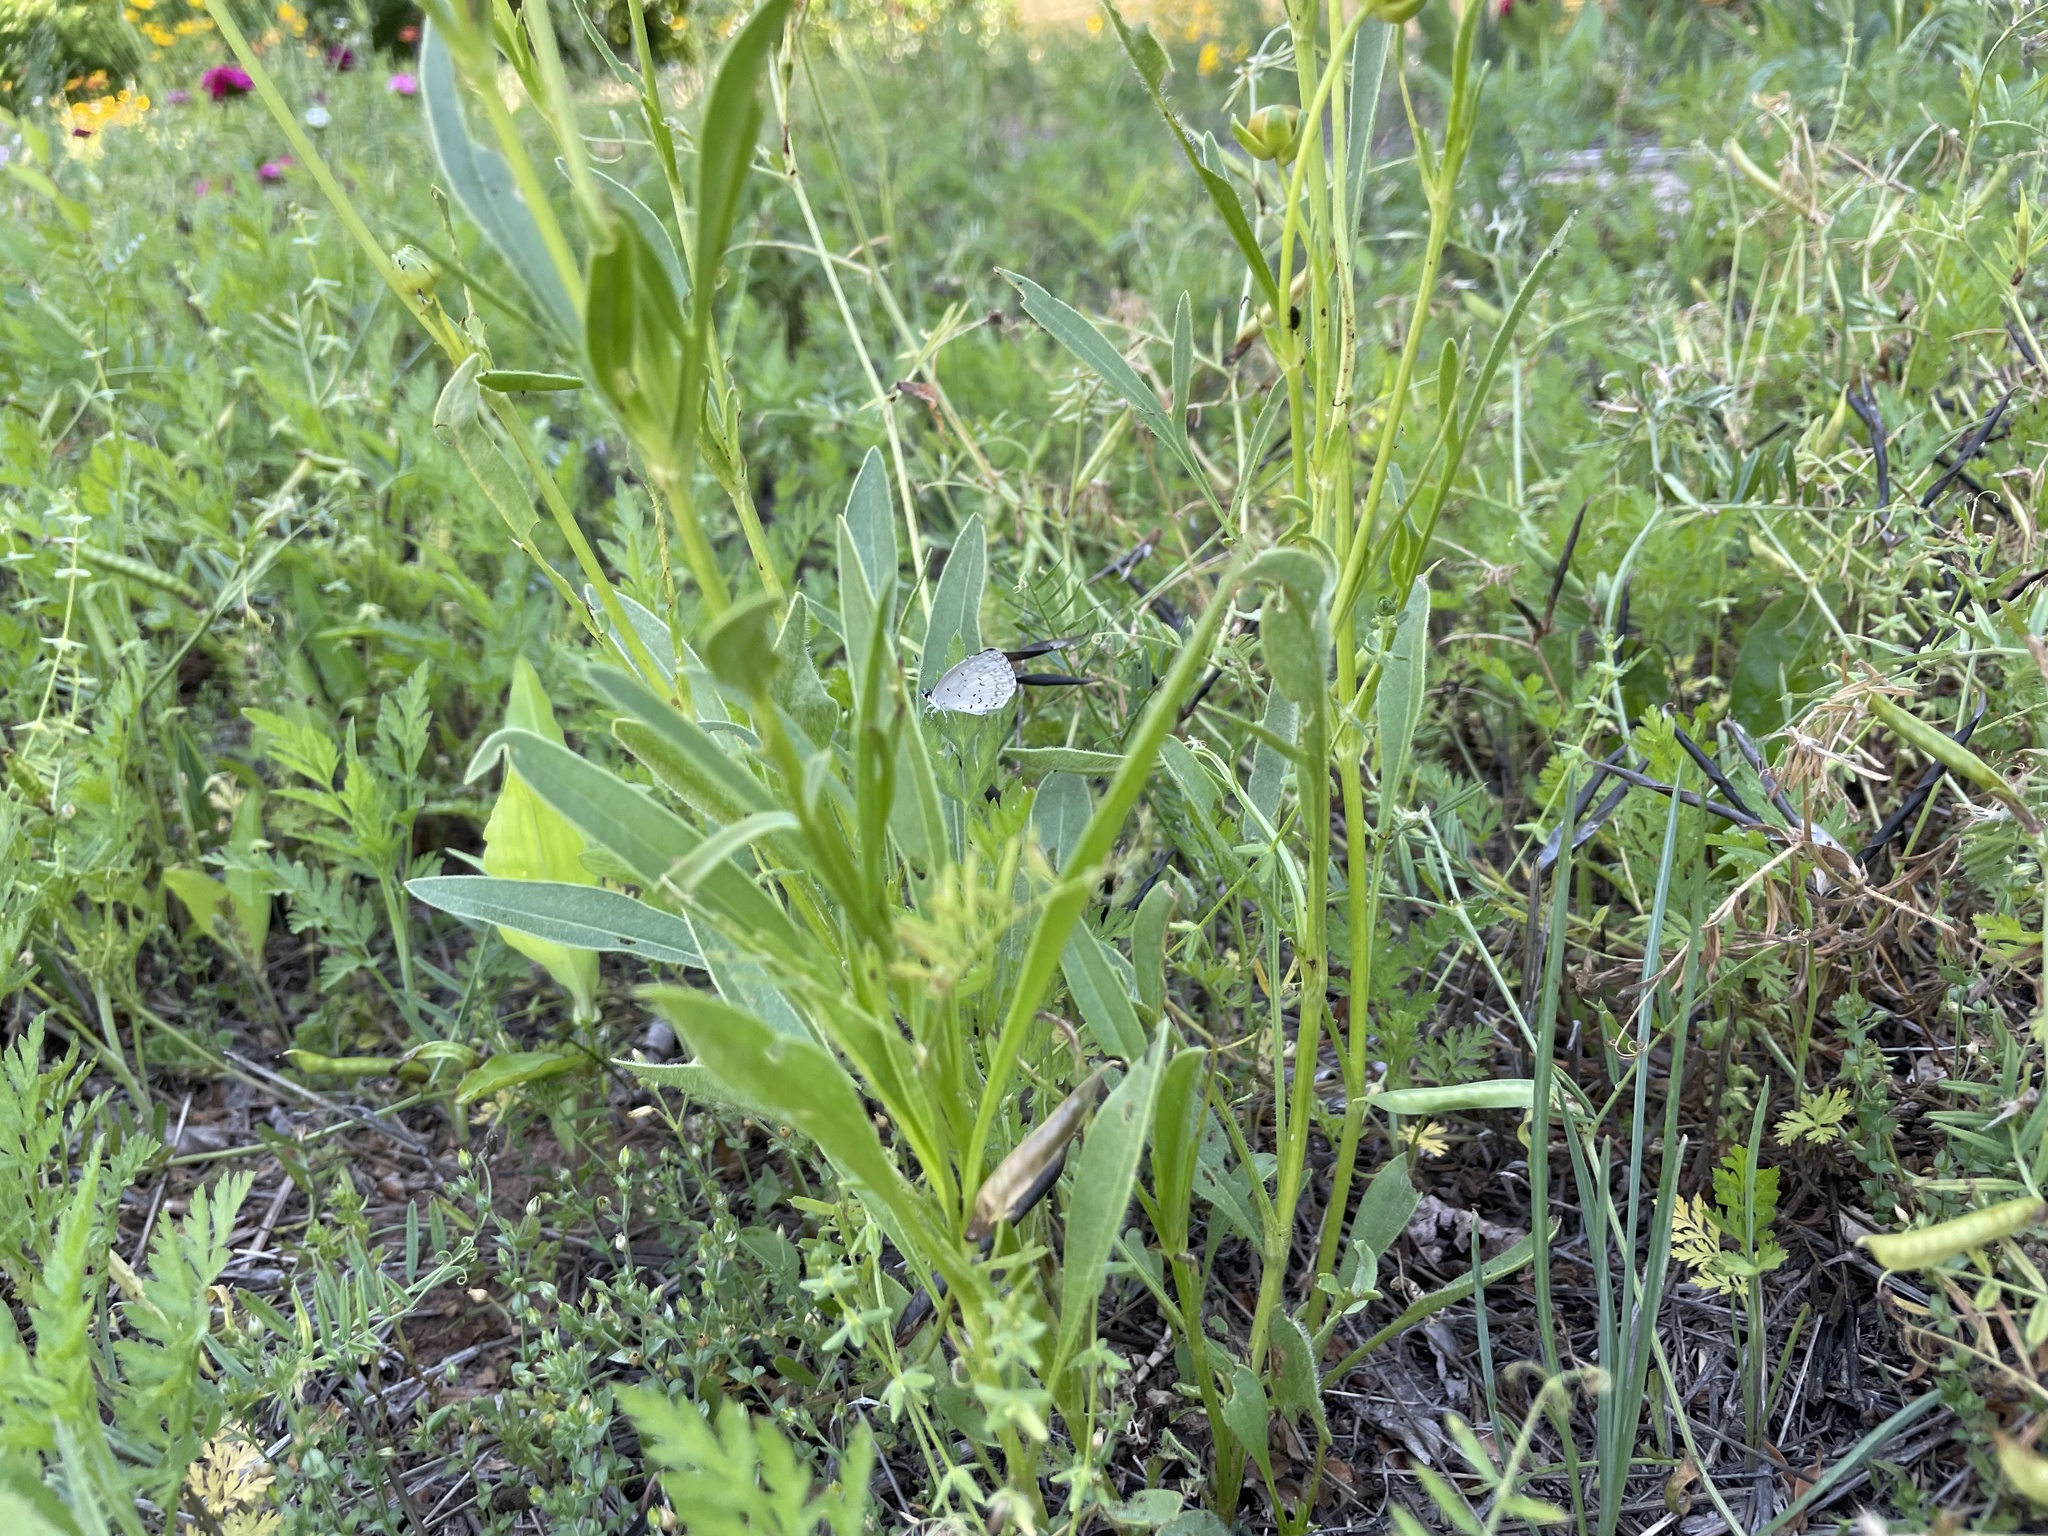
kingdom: Animalia
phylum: Arthropoda
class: Insecta
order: Lepidoptera
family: Lycaenidae
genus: Cyaniris
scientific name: Cyaniris neglecta
